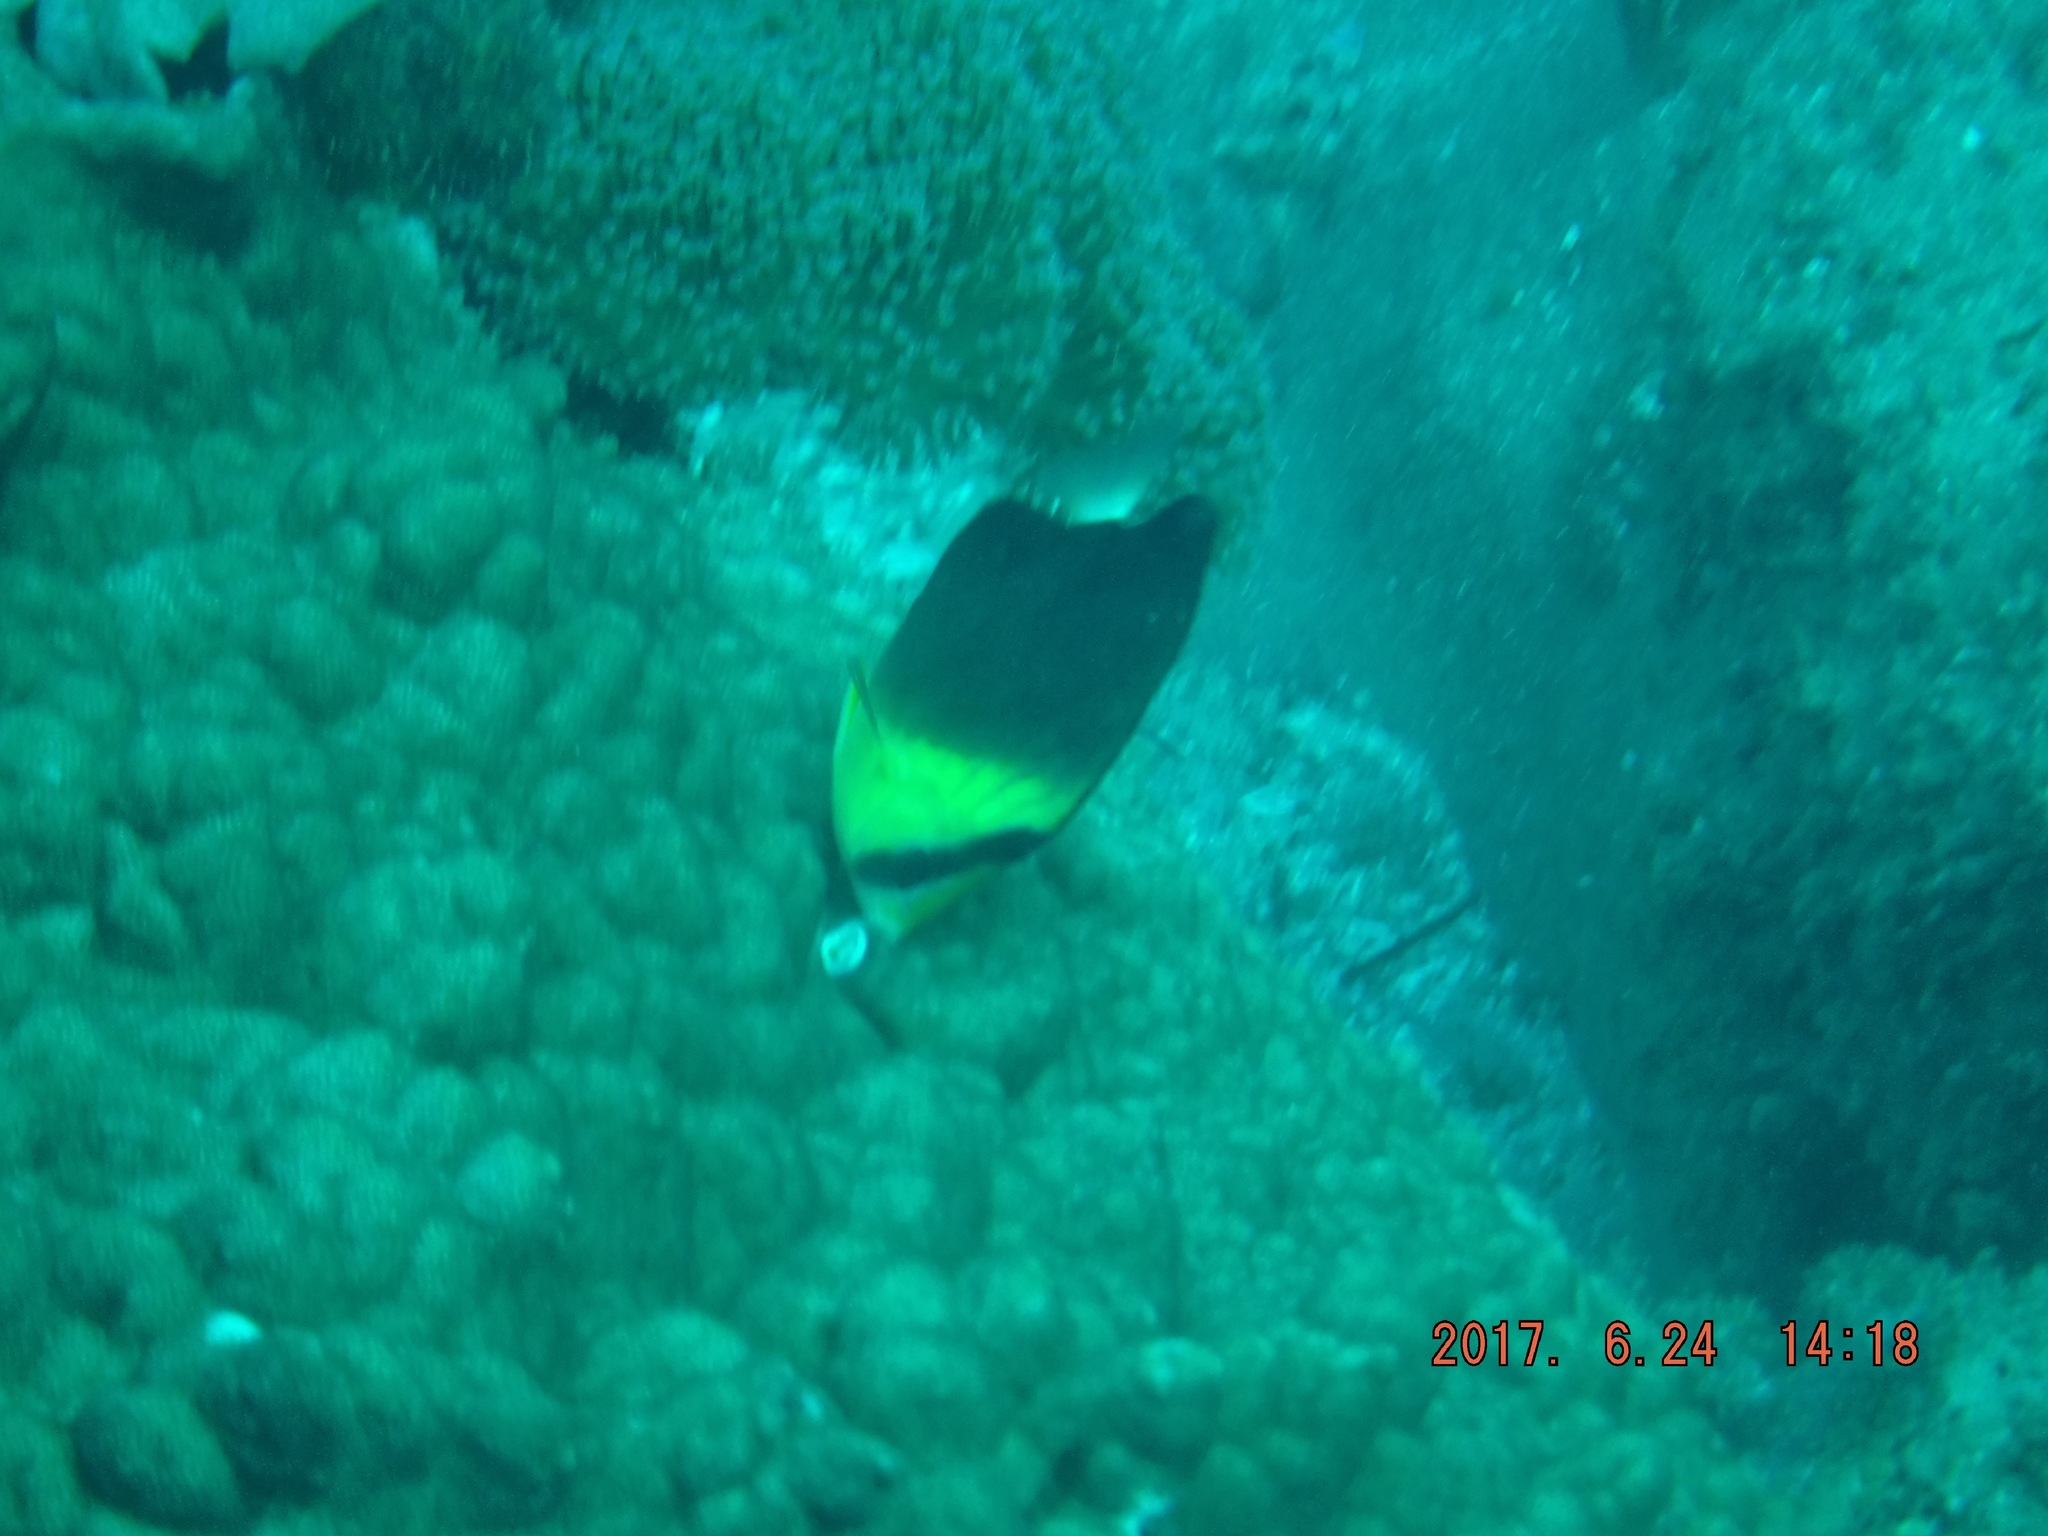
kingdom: Animalia
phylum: Chordata
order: Perciformes
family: Chaetodontidae
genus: Chaetodon
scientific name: Chaetodon blackburnii
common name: Blackburn's butterflyfish
